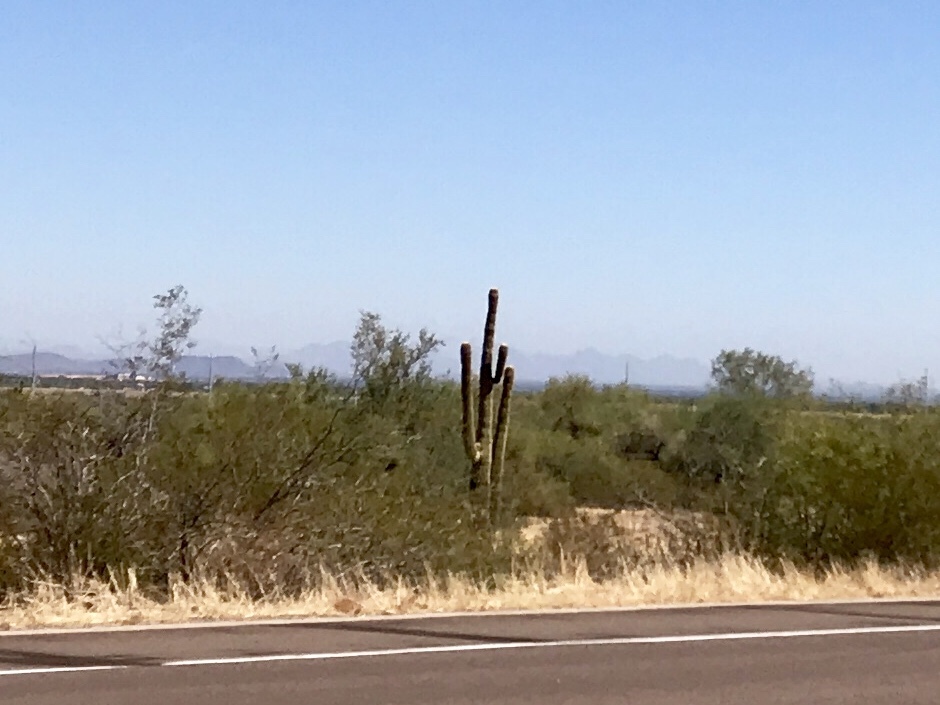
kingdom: Plantae
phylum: Tracheophyta
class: Magnoliopsida
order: Caryophyllales
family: Cactaceae
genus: Carnegiea
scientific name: Carnegiea gigantea
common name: Saguaro
